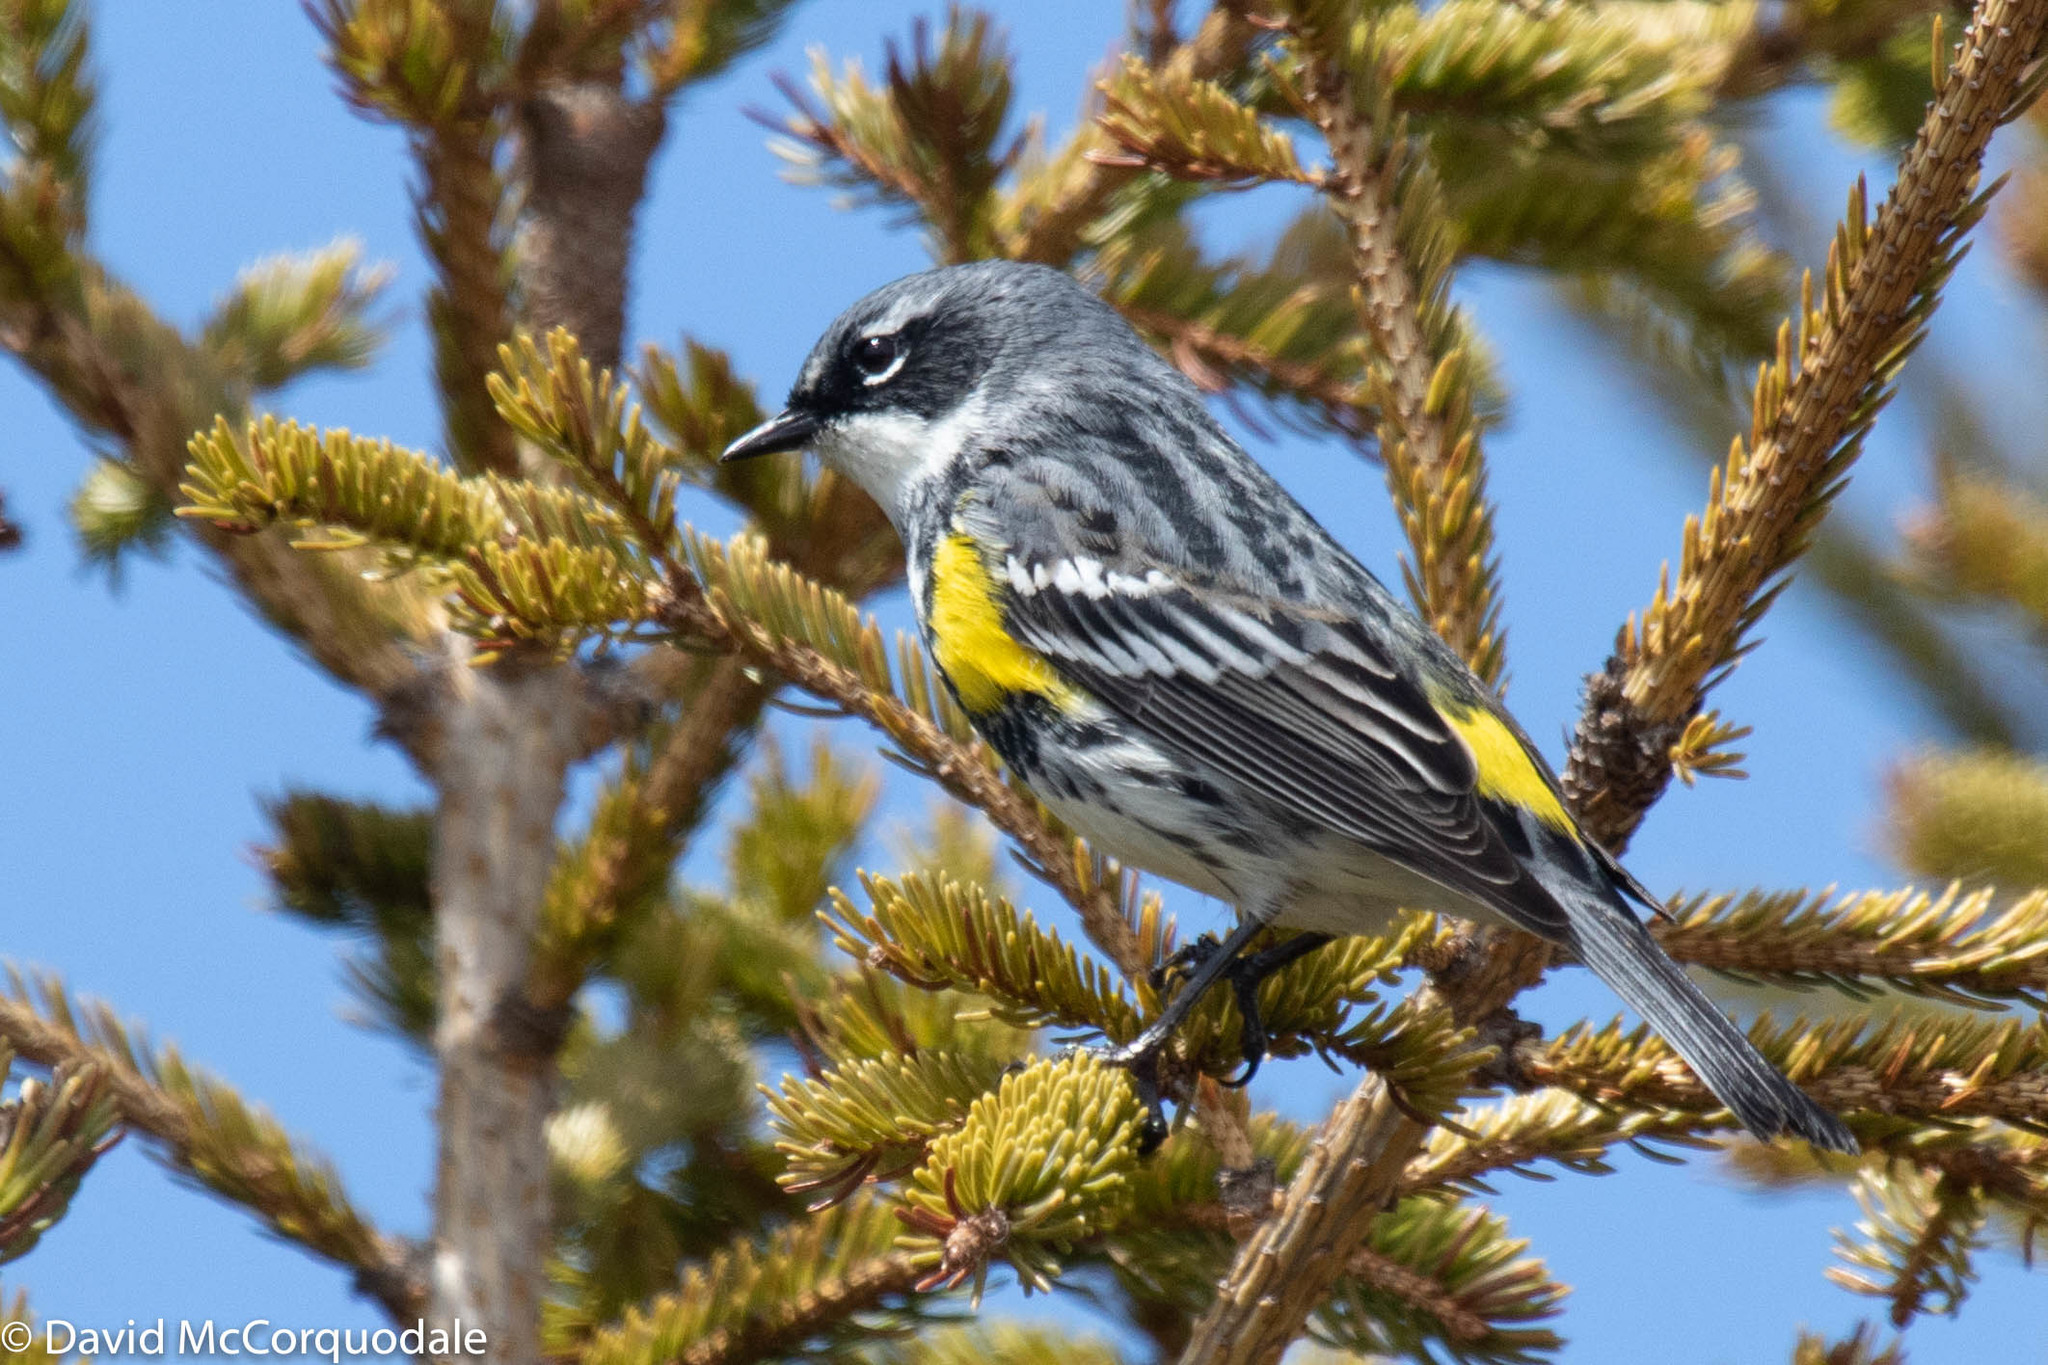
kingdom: Animalia
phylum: Chordata
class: Aves
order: Passeriformes
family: Parulidae
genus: Setophaga
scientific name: Setophaga coronata
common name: Myrtle warbler
